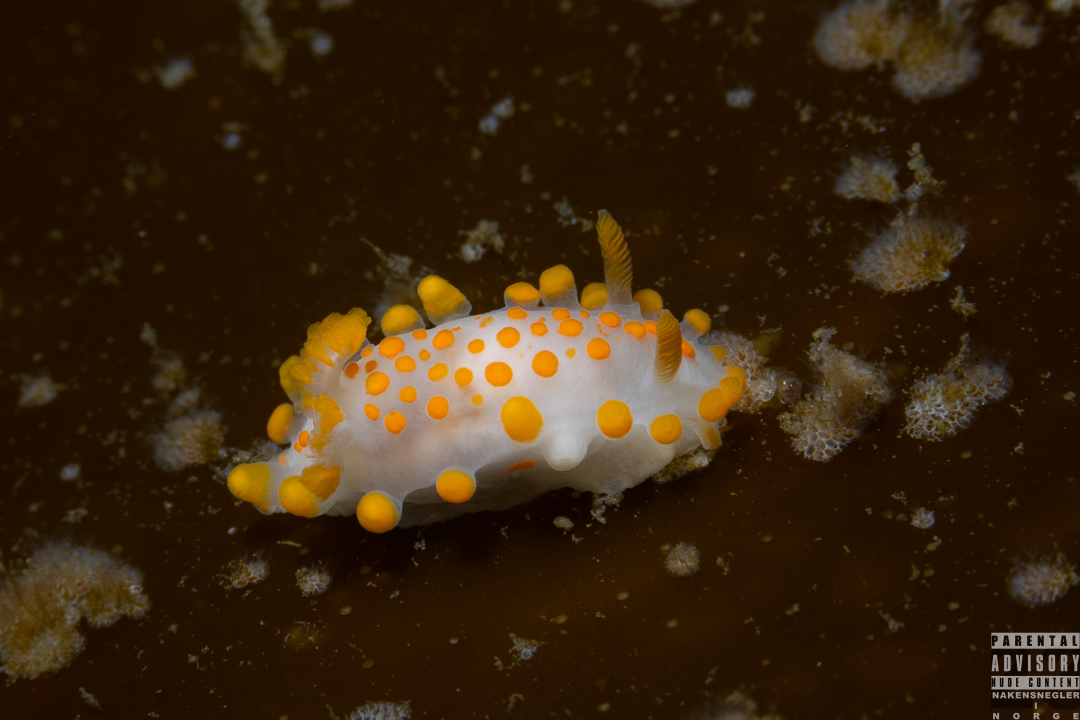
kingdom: Animalia
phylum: Mollusca
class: Gastropoda
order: Nudibranchia
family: Polyceridae
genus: Limacia
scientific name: Limacia clavigera
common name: Orange-clubbed sea slug
